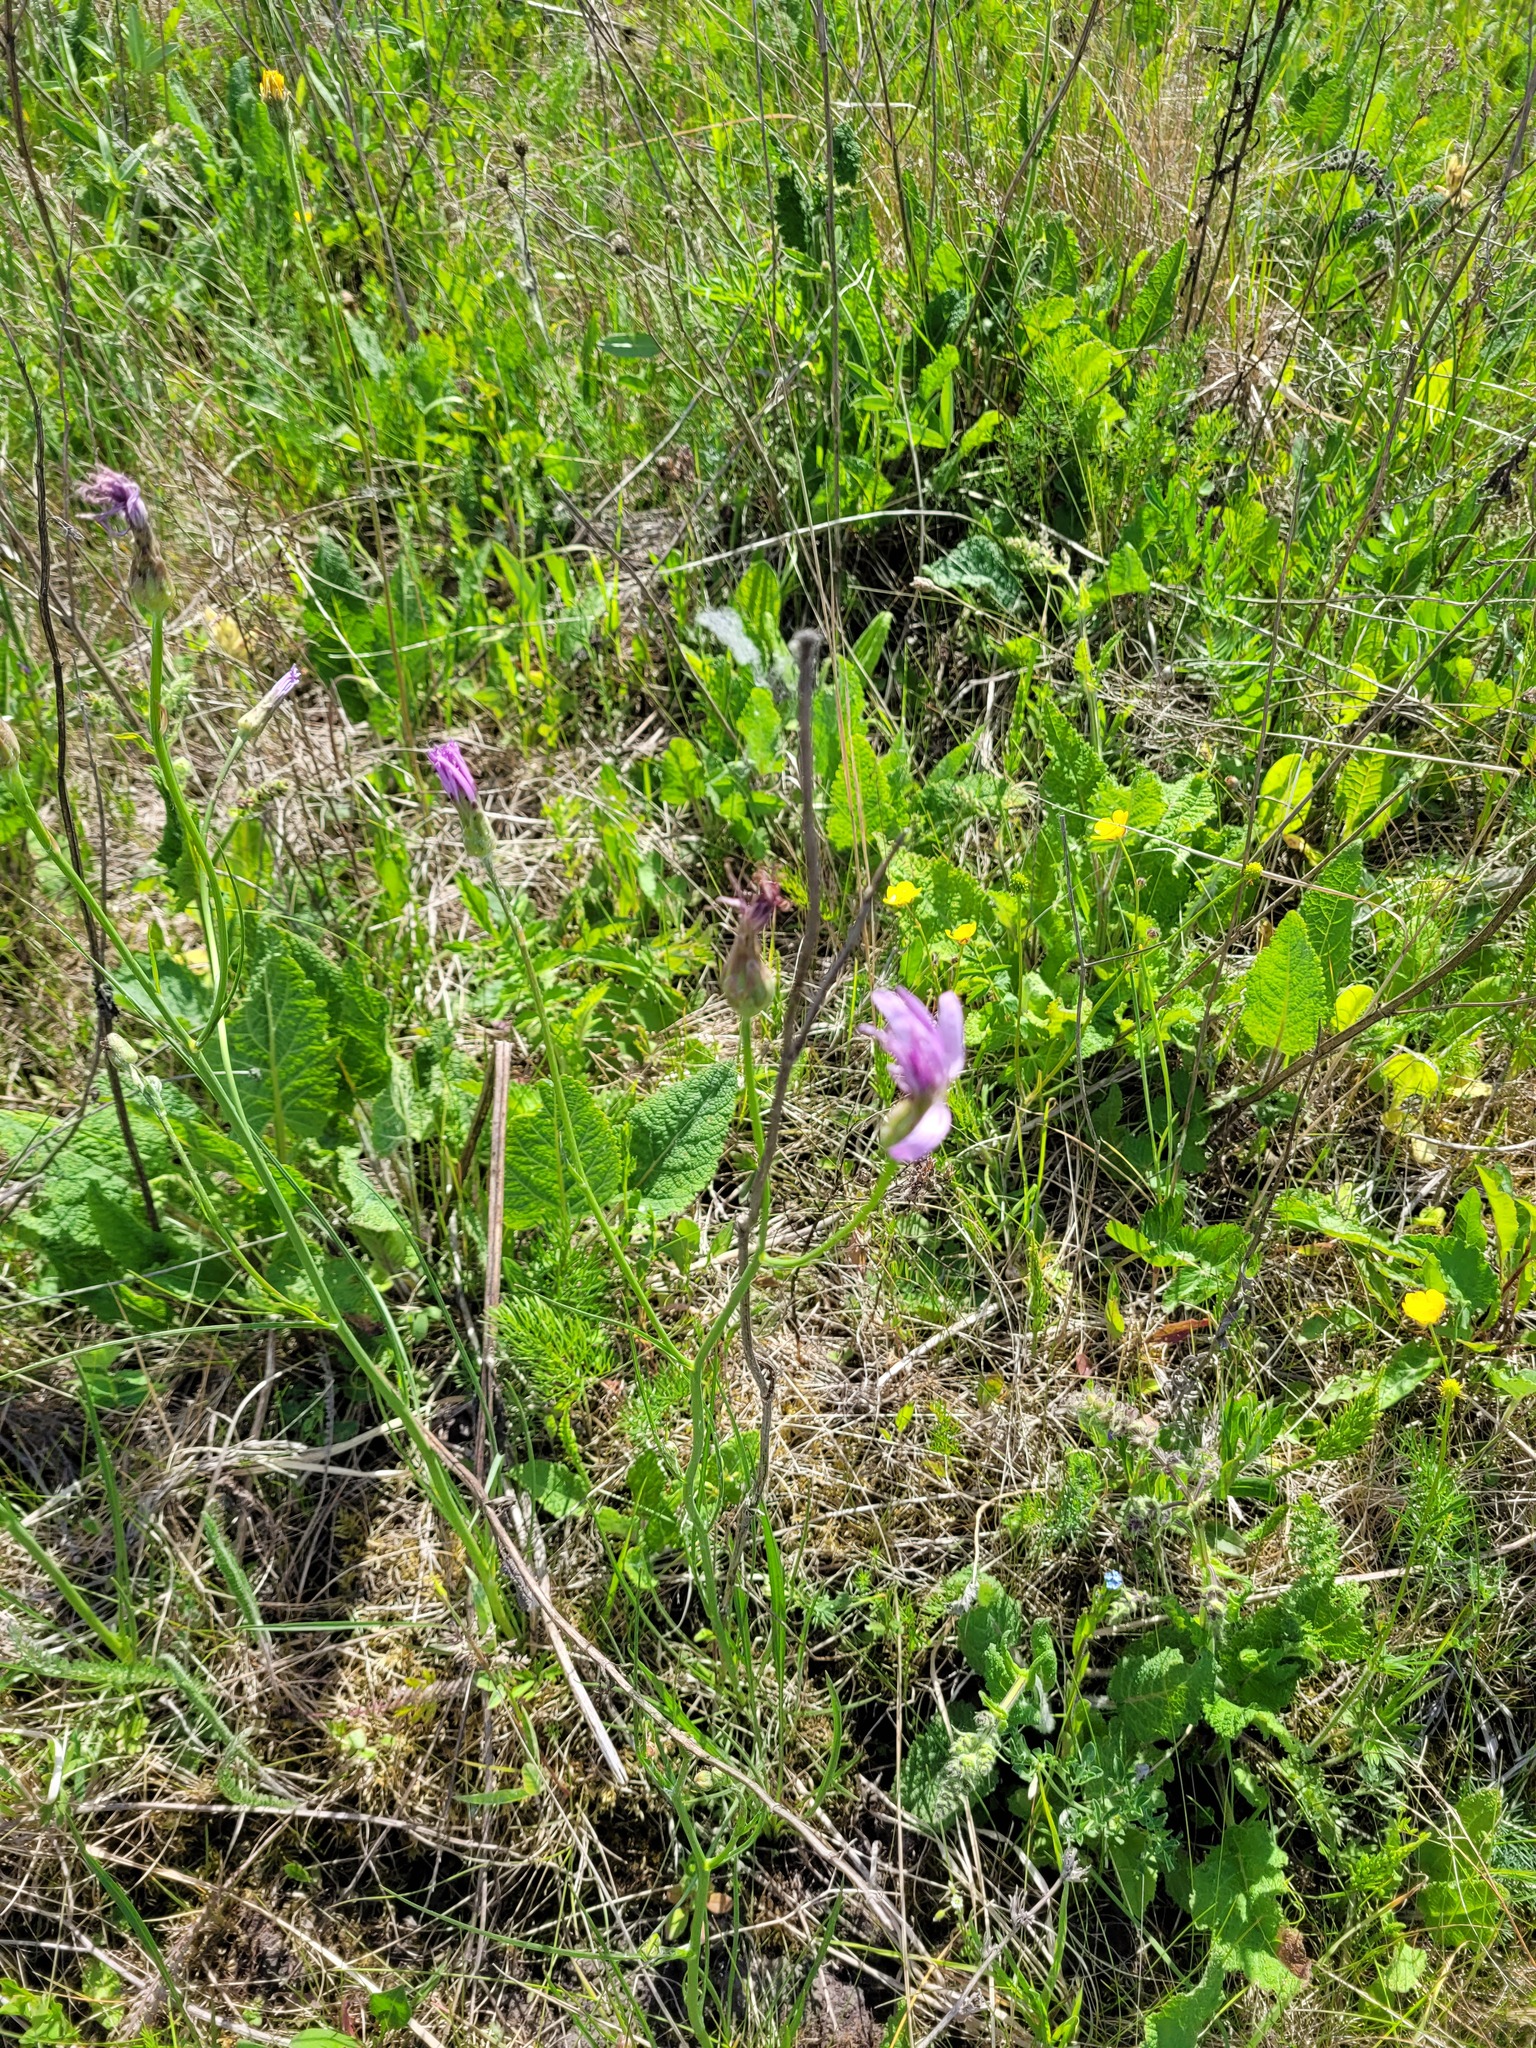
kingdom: Plantae
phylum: Tracheophyta
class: Magnoliopsida
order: Asterales
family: Asteraceae
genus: Scorzonera
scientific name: Scorzonera purpurea
